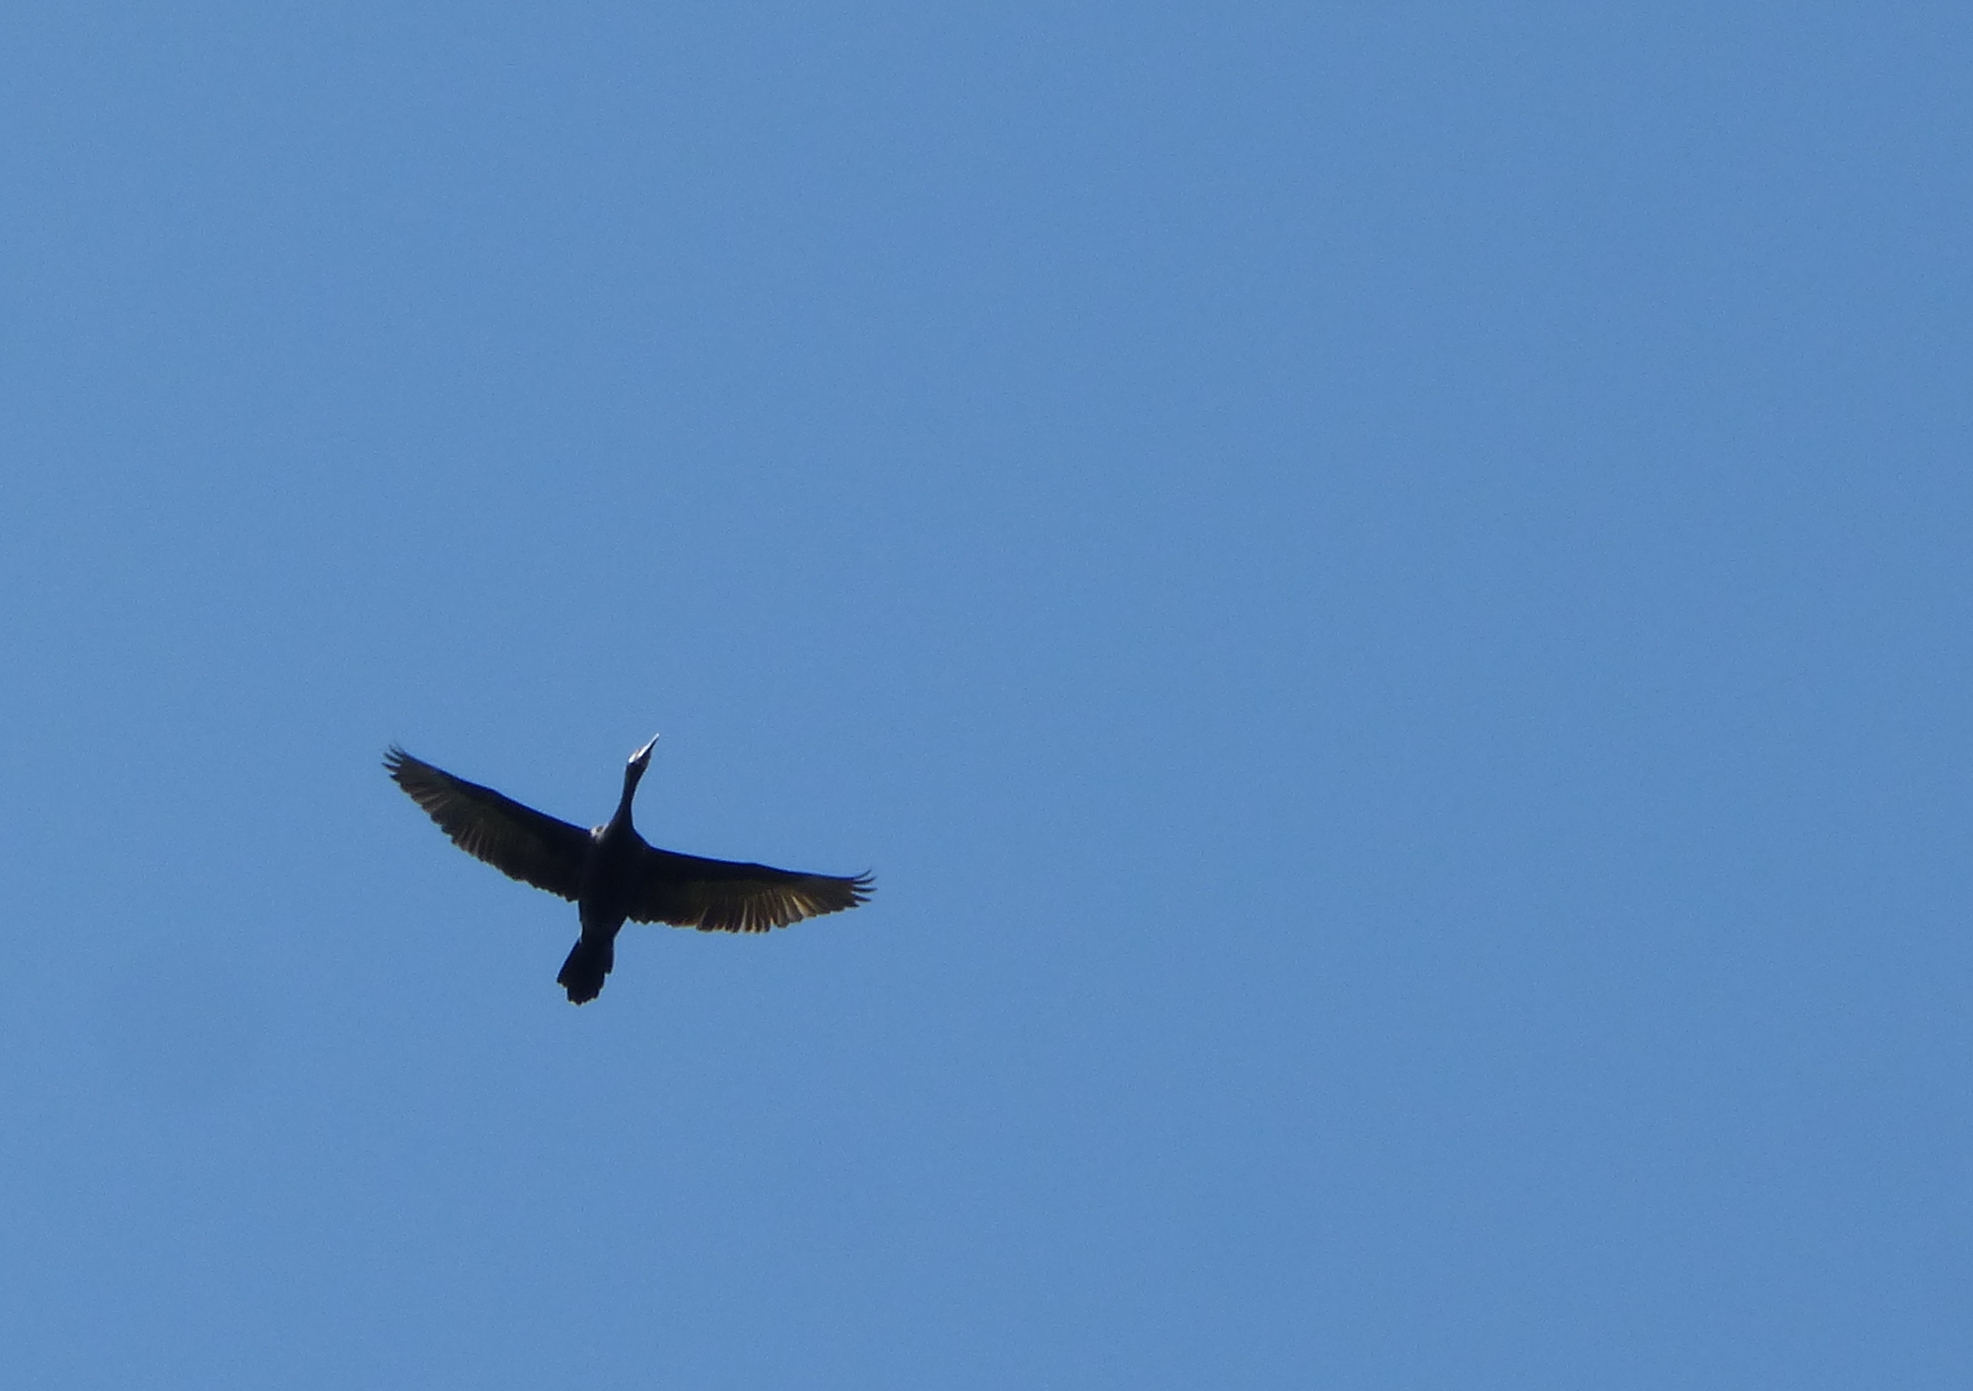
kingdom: Animalia
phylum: Chordata
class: Aves
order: Suliformes
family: Phalacrocoracidae
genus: Phalacrocorax
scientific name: Phalacrocorax brasilianus
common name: Neotropic cormorant
